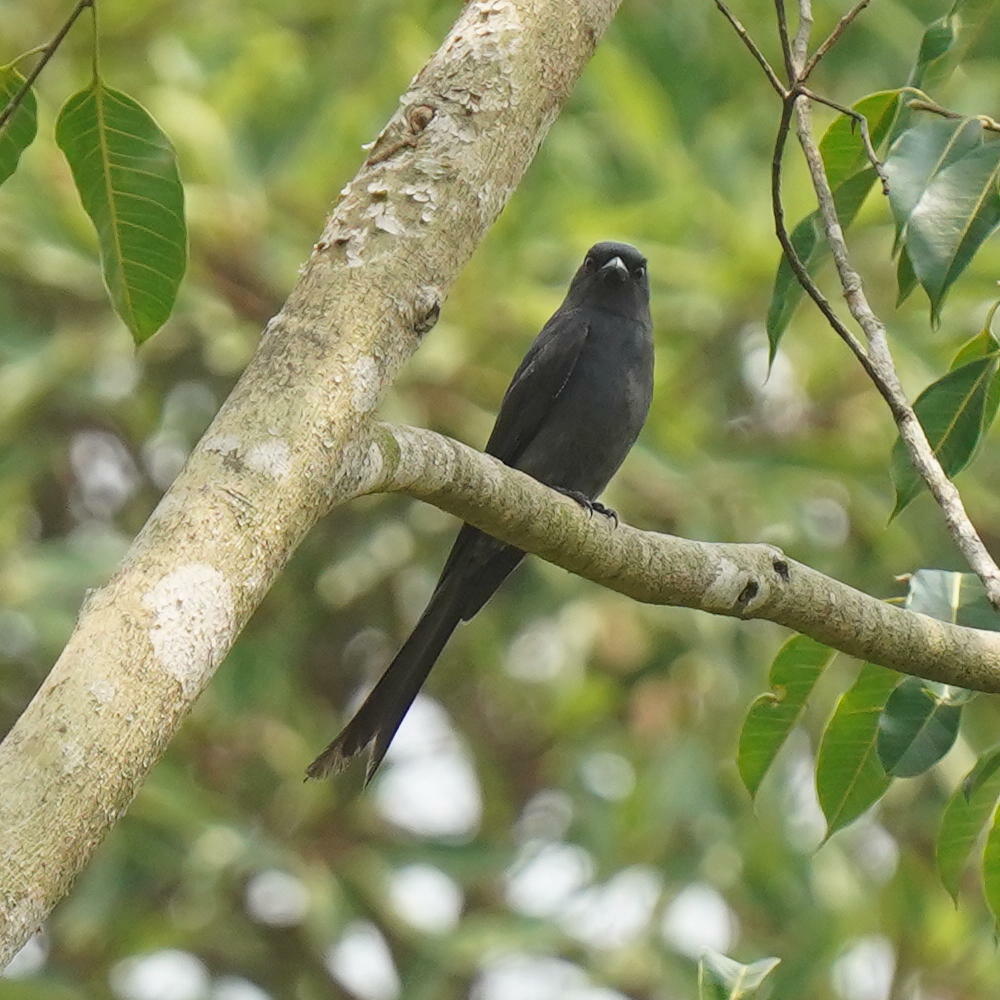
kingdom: Animalia
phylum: Chordata
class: Aves
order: Passeriformes
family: Dicruridae
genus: Dicrurus
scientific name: Dicrurus leucophaeus
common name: Ashy drongo
